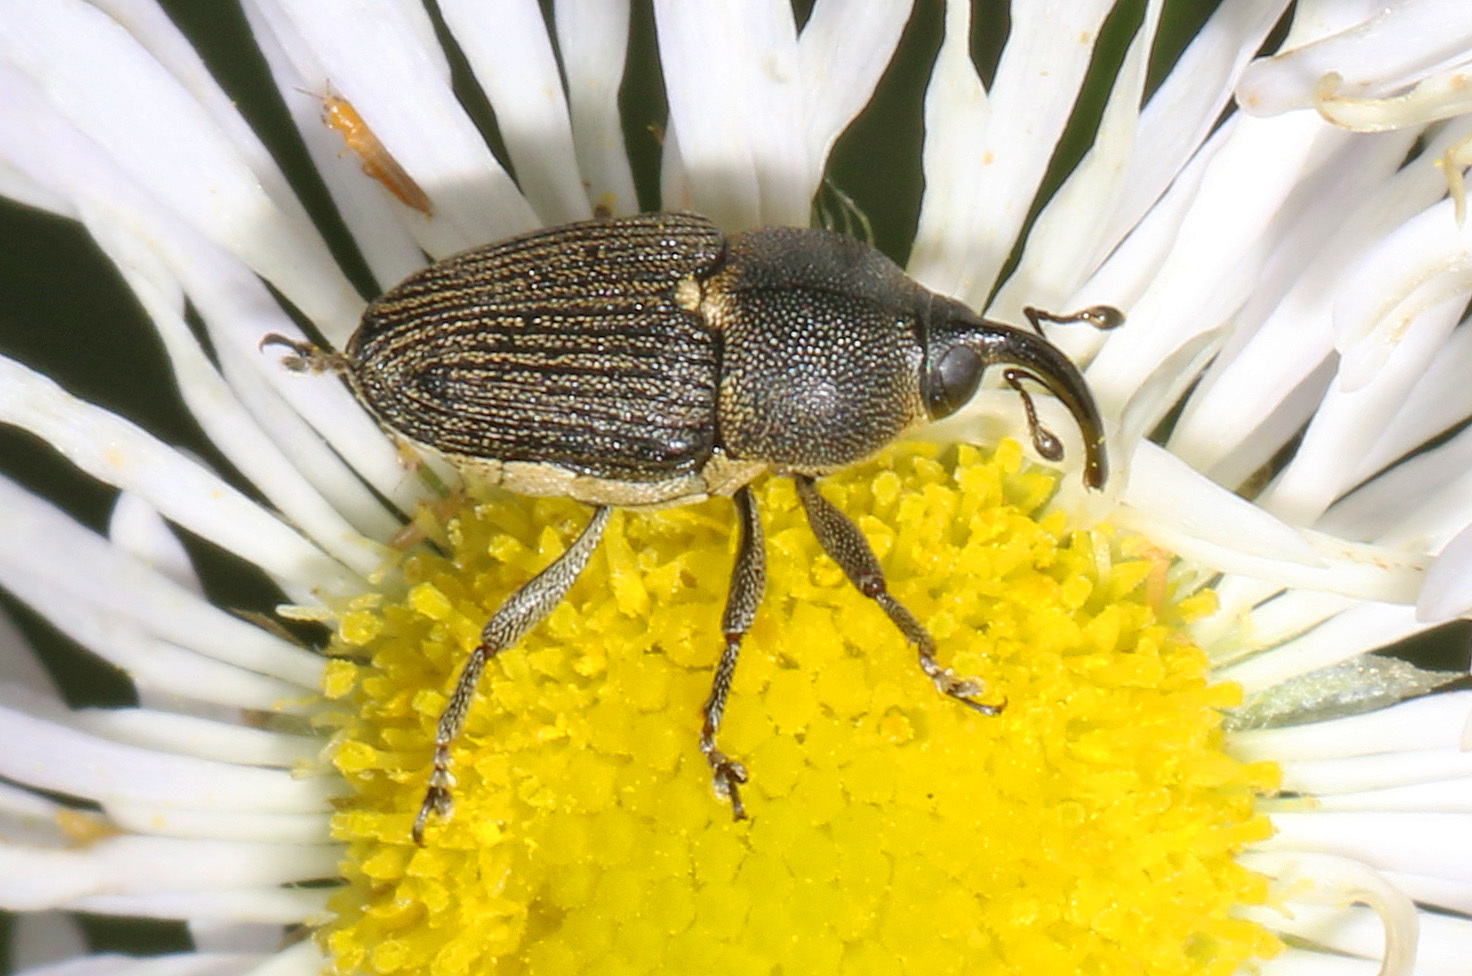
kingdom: Animalia
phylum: Arthropoda
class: Insecta
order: Coleoptera
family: Curculionidae
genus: Odontocorynus
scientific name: Odontocorynus salebrosus
